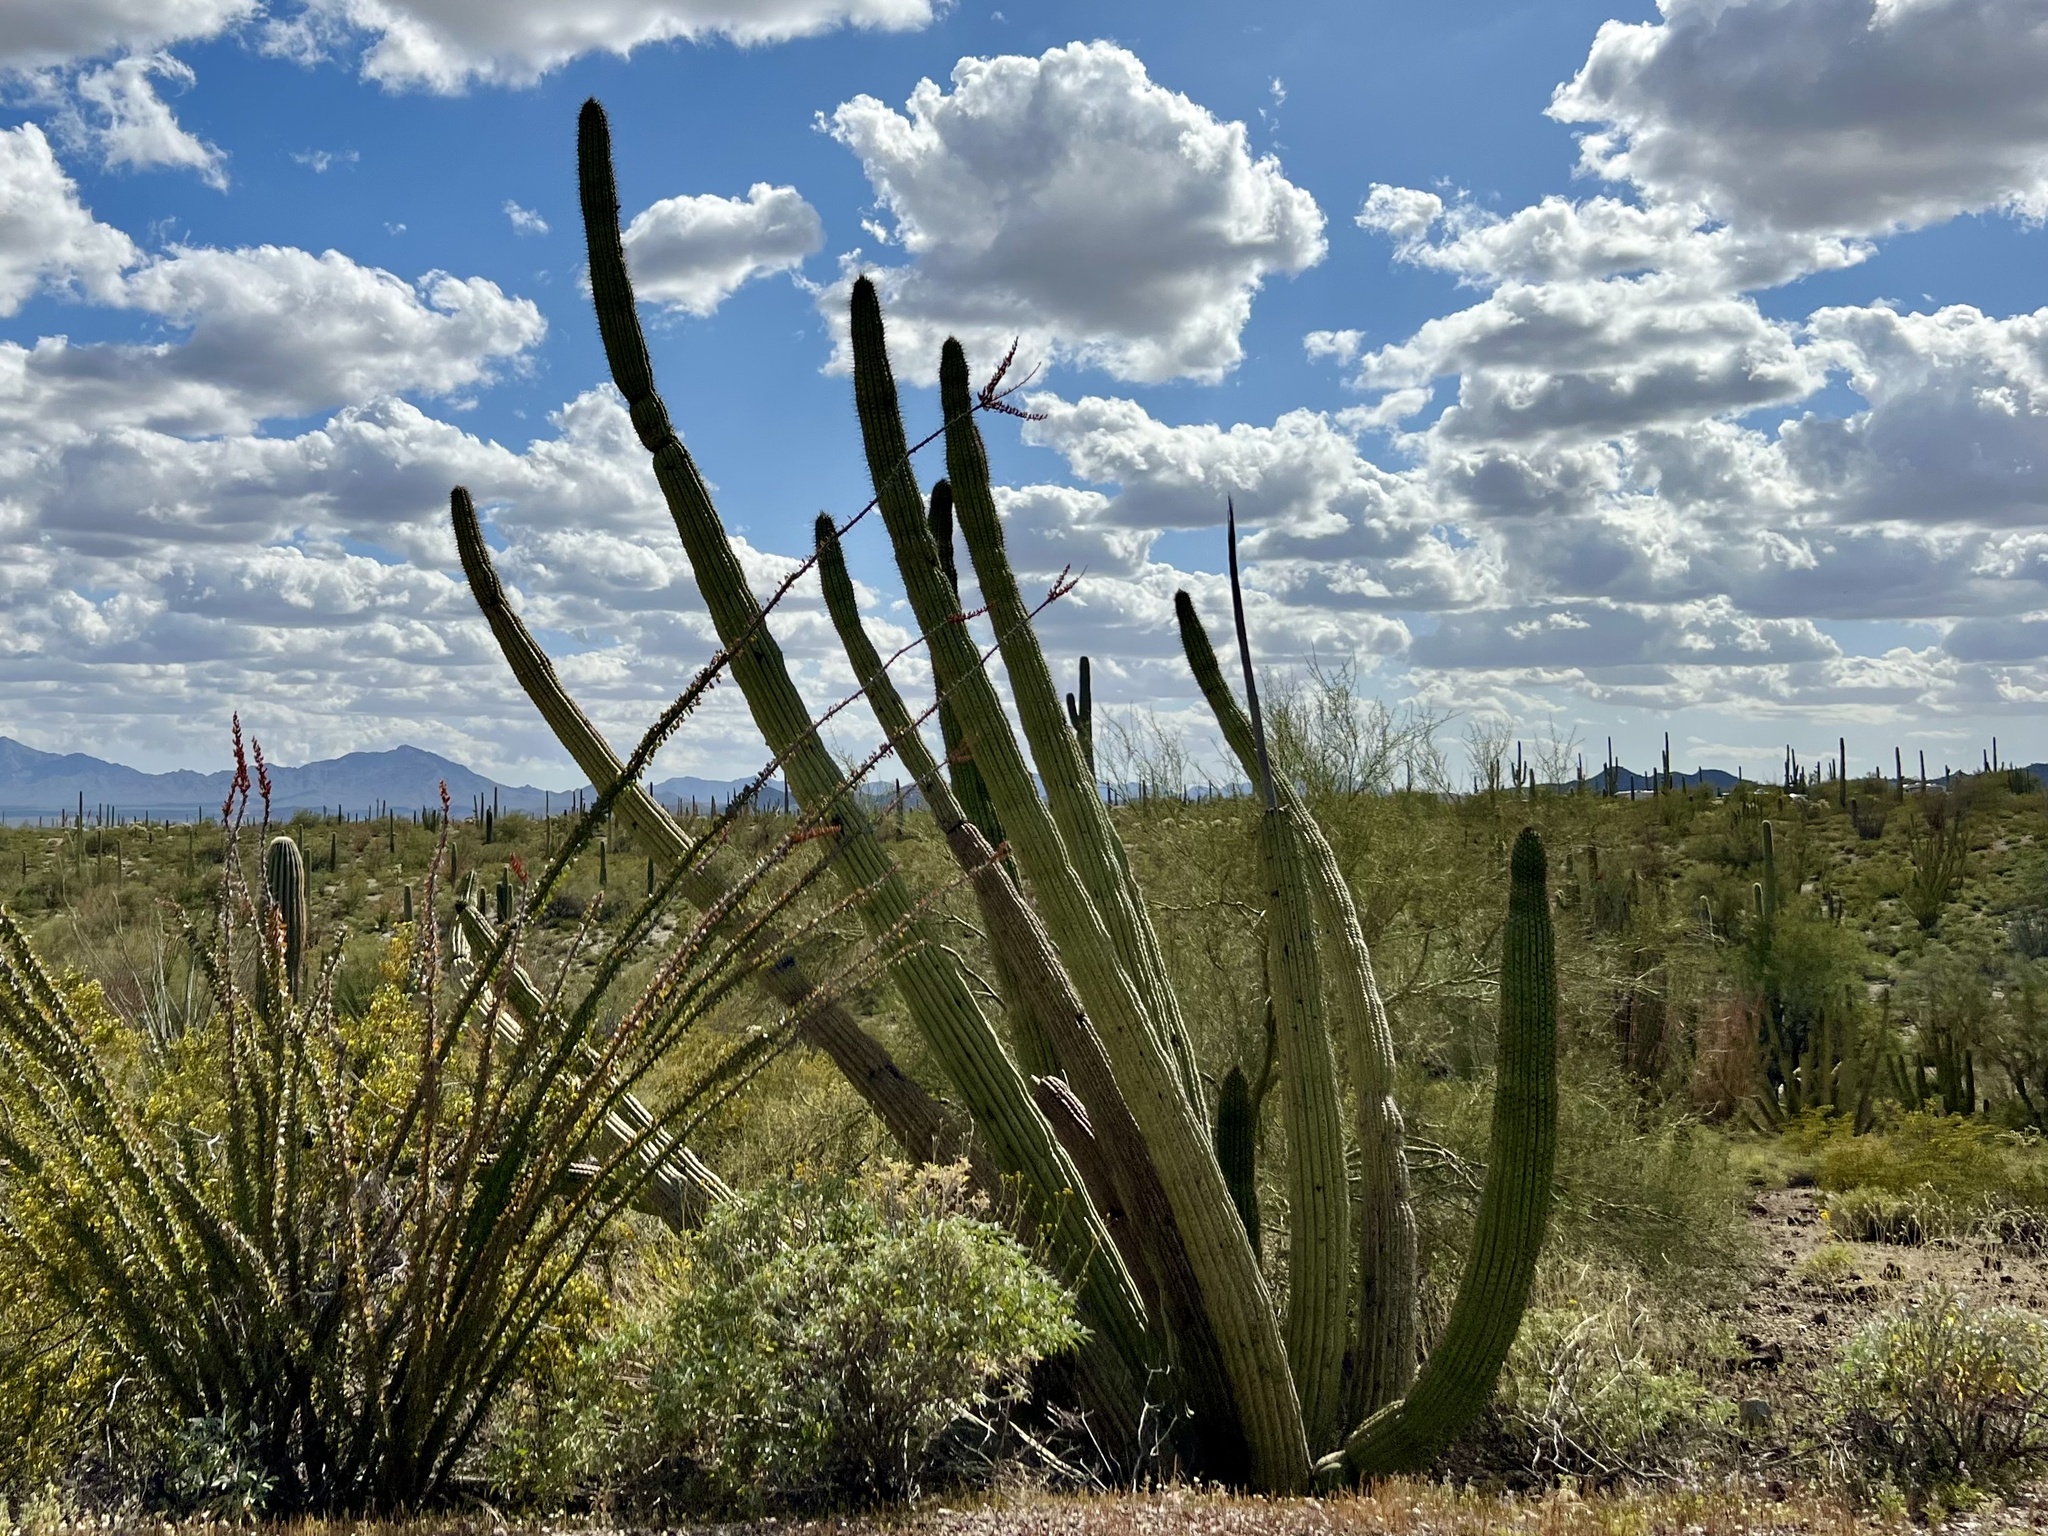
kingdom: Plantae
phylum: Tracheophyta
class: Magnoliopsida
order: Caryophyllales
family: Cactaceae
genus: Stenocereus
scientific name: Stenocereus thurberi
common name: Organ pipe cactus
